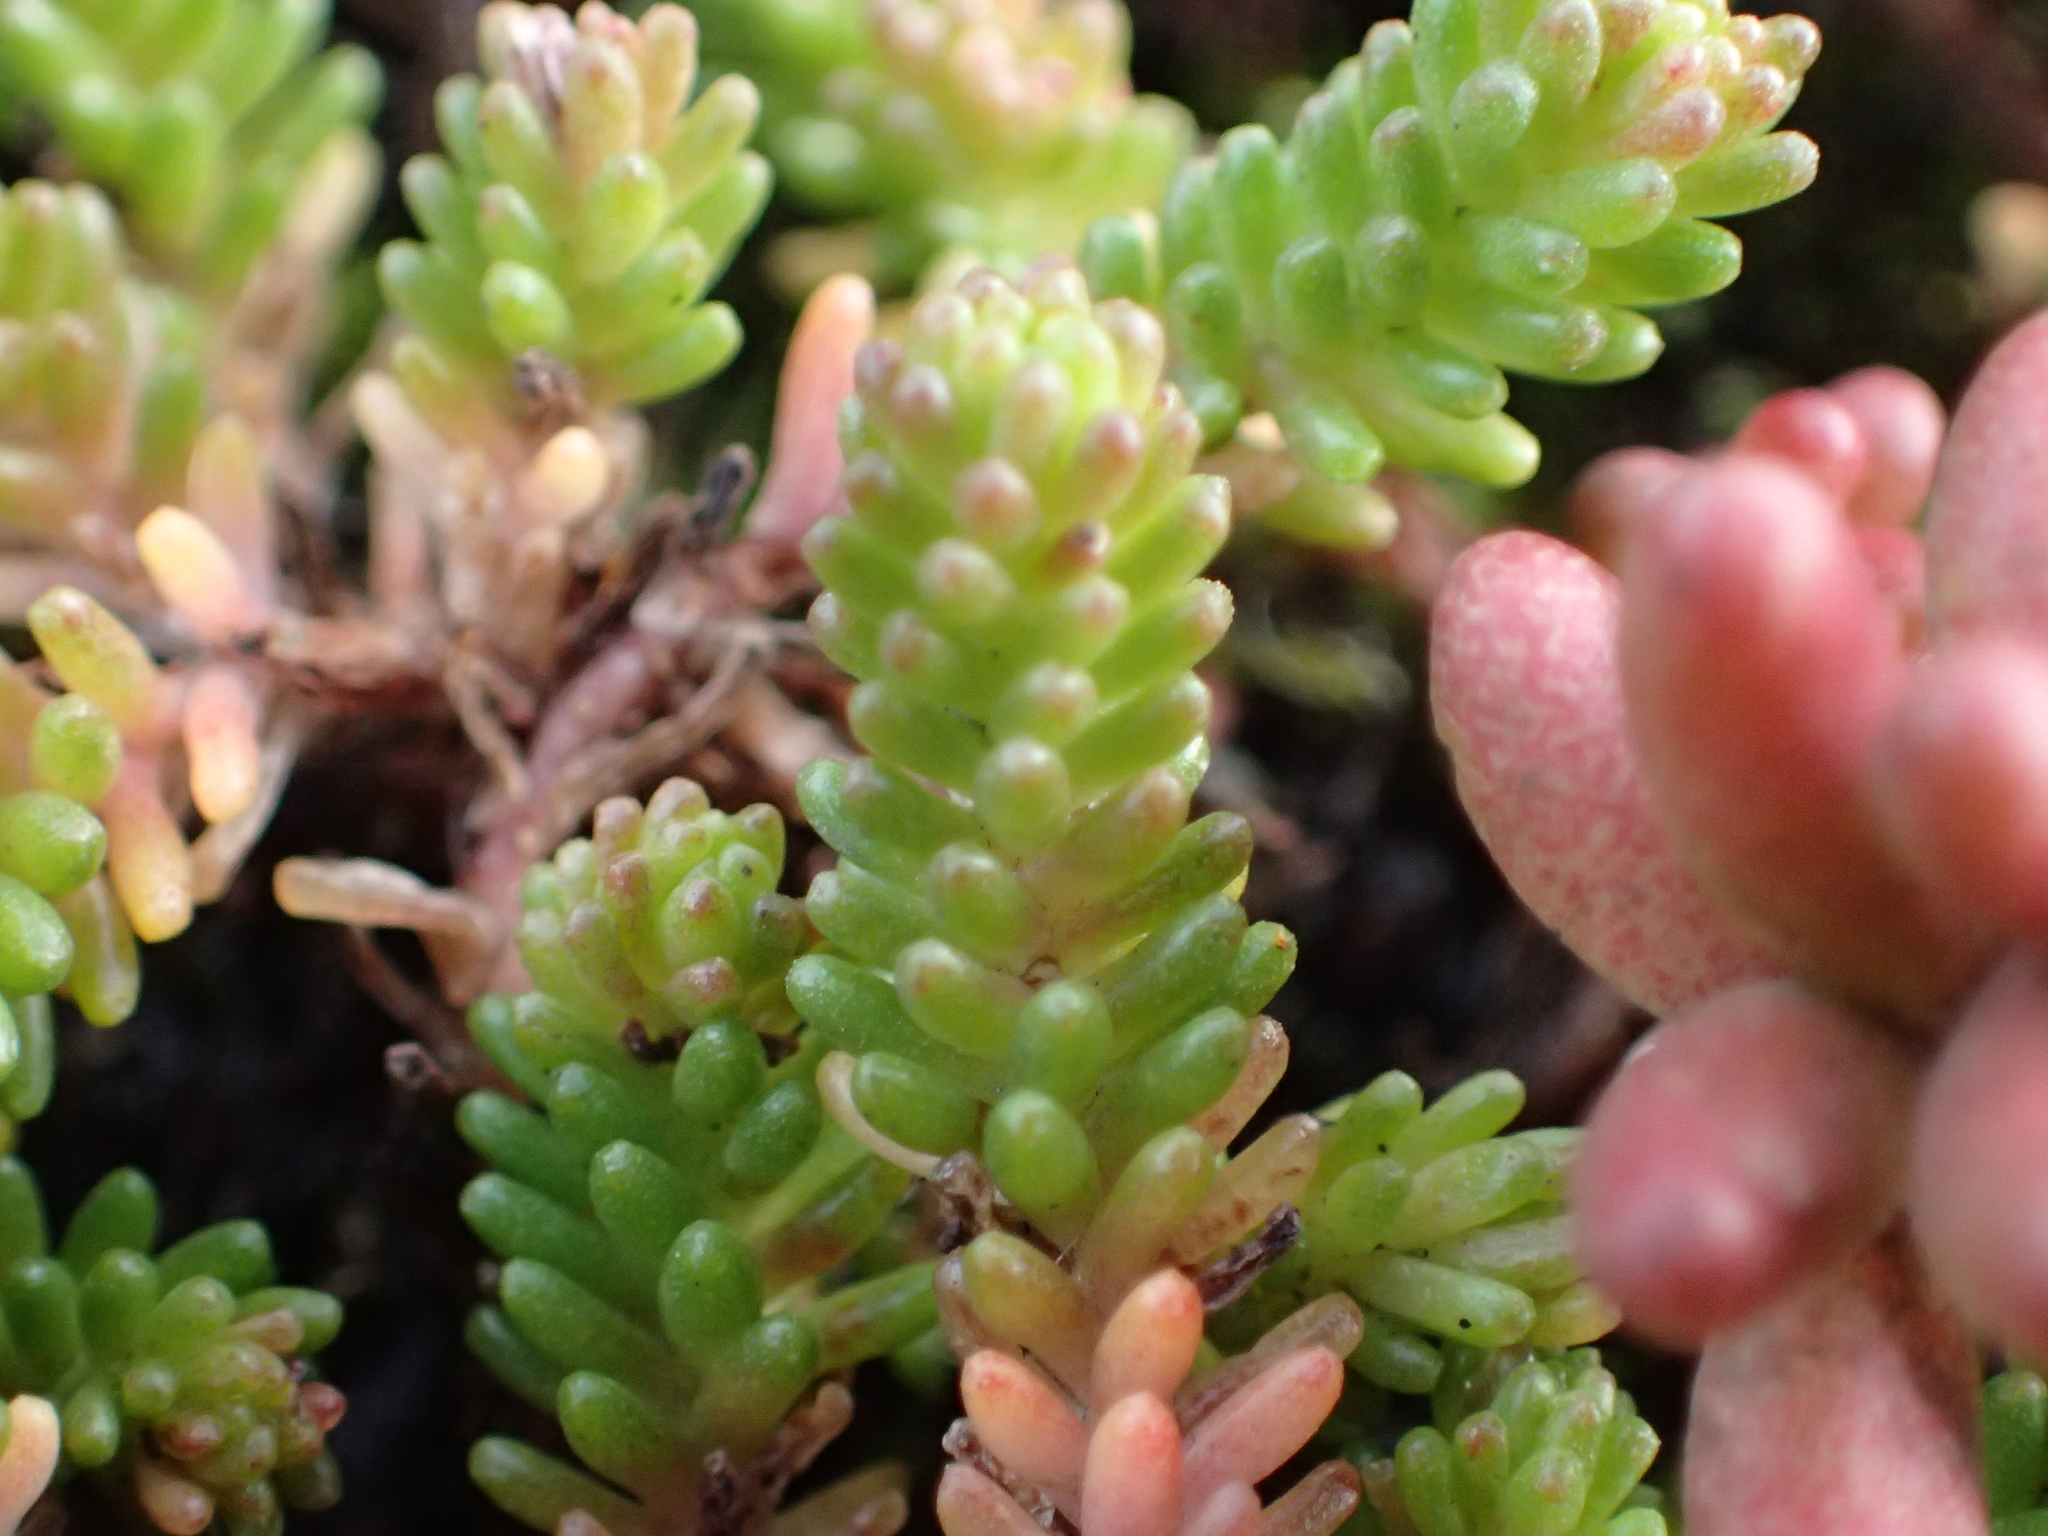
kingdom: Plantae
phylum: Tracheophyta
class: Magnoliopsida
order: Saxifragales
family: Crassulaceae
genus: Sedum
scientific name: Sedum sexangulare
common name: Tasteless stonecrop
